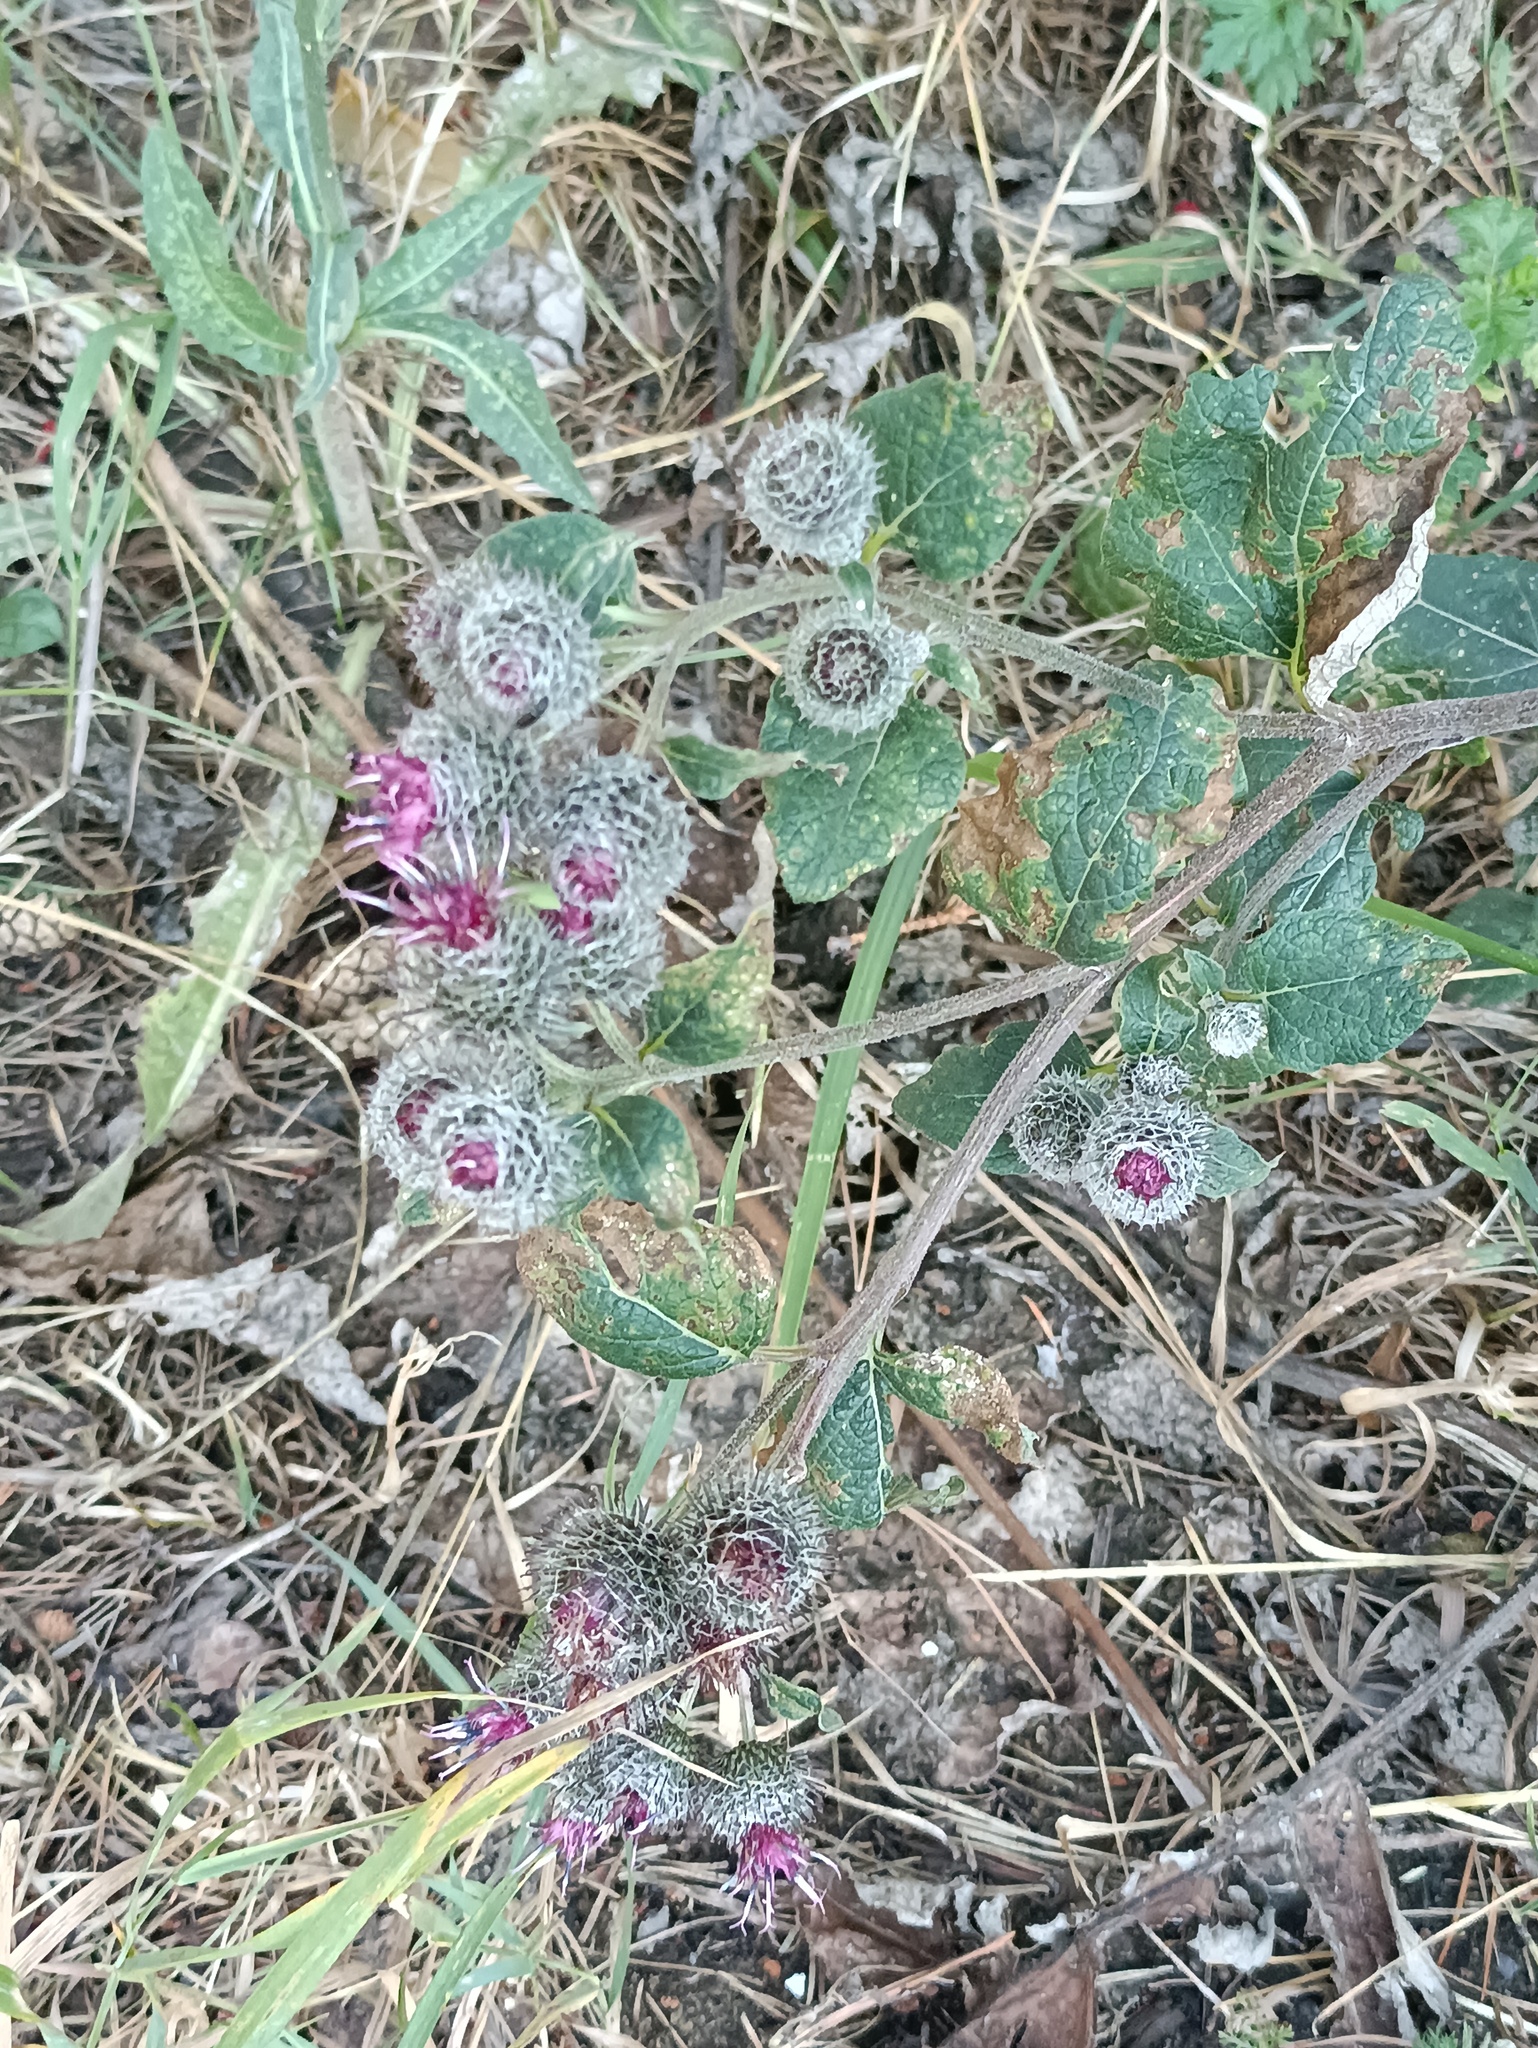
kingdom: Plantae
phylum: Tracheophyta
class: Magnoliopsida
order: Asterales
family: Asteraceae
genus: Arctium
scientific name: Arctium tomentosum
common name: Woolly burdock
